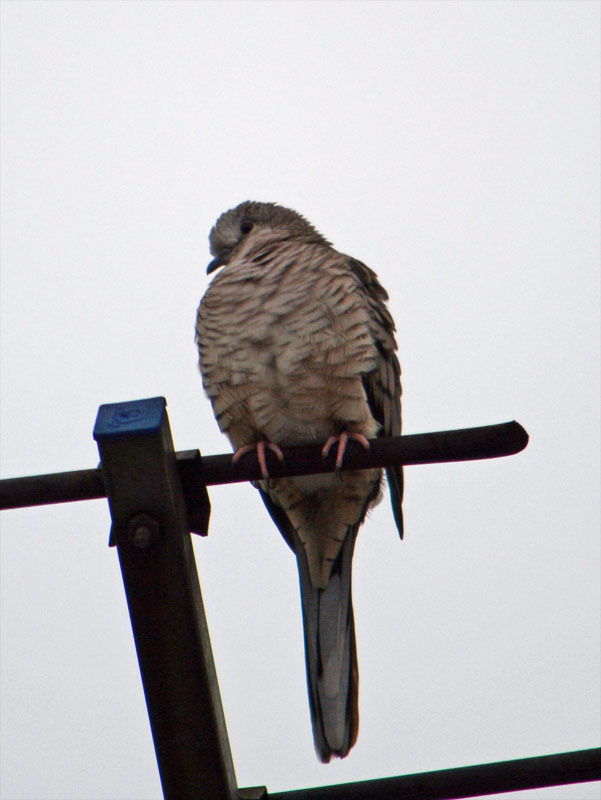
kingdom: Animalia
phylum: Chordata
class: Aves
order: Columbiformes
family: Columbidae
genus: Columbina
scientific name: Columbina inca
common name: Inca dove
